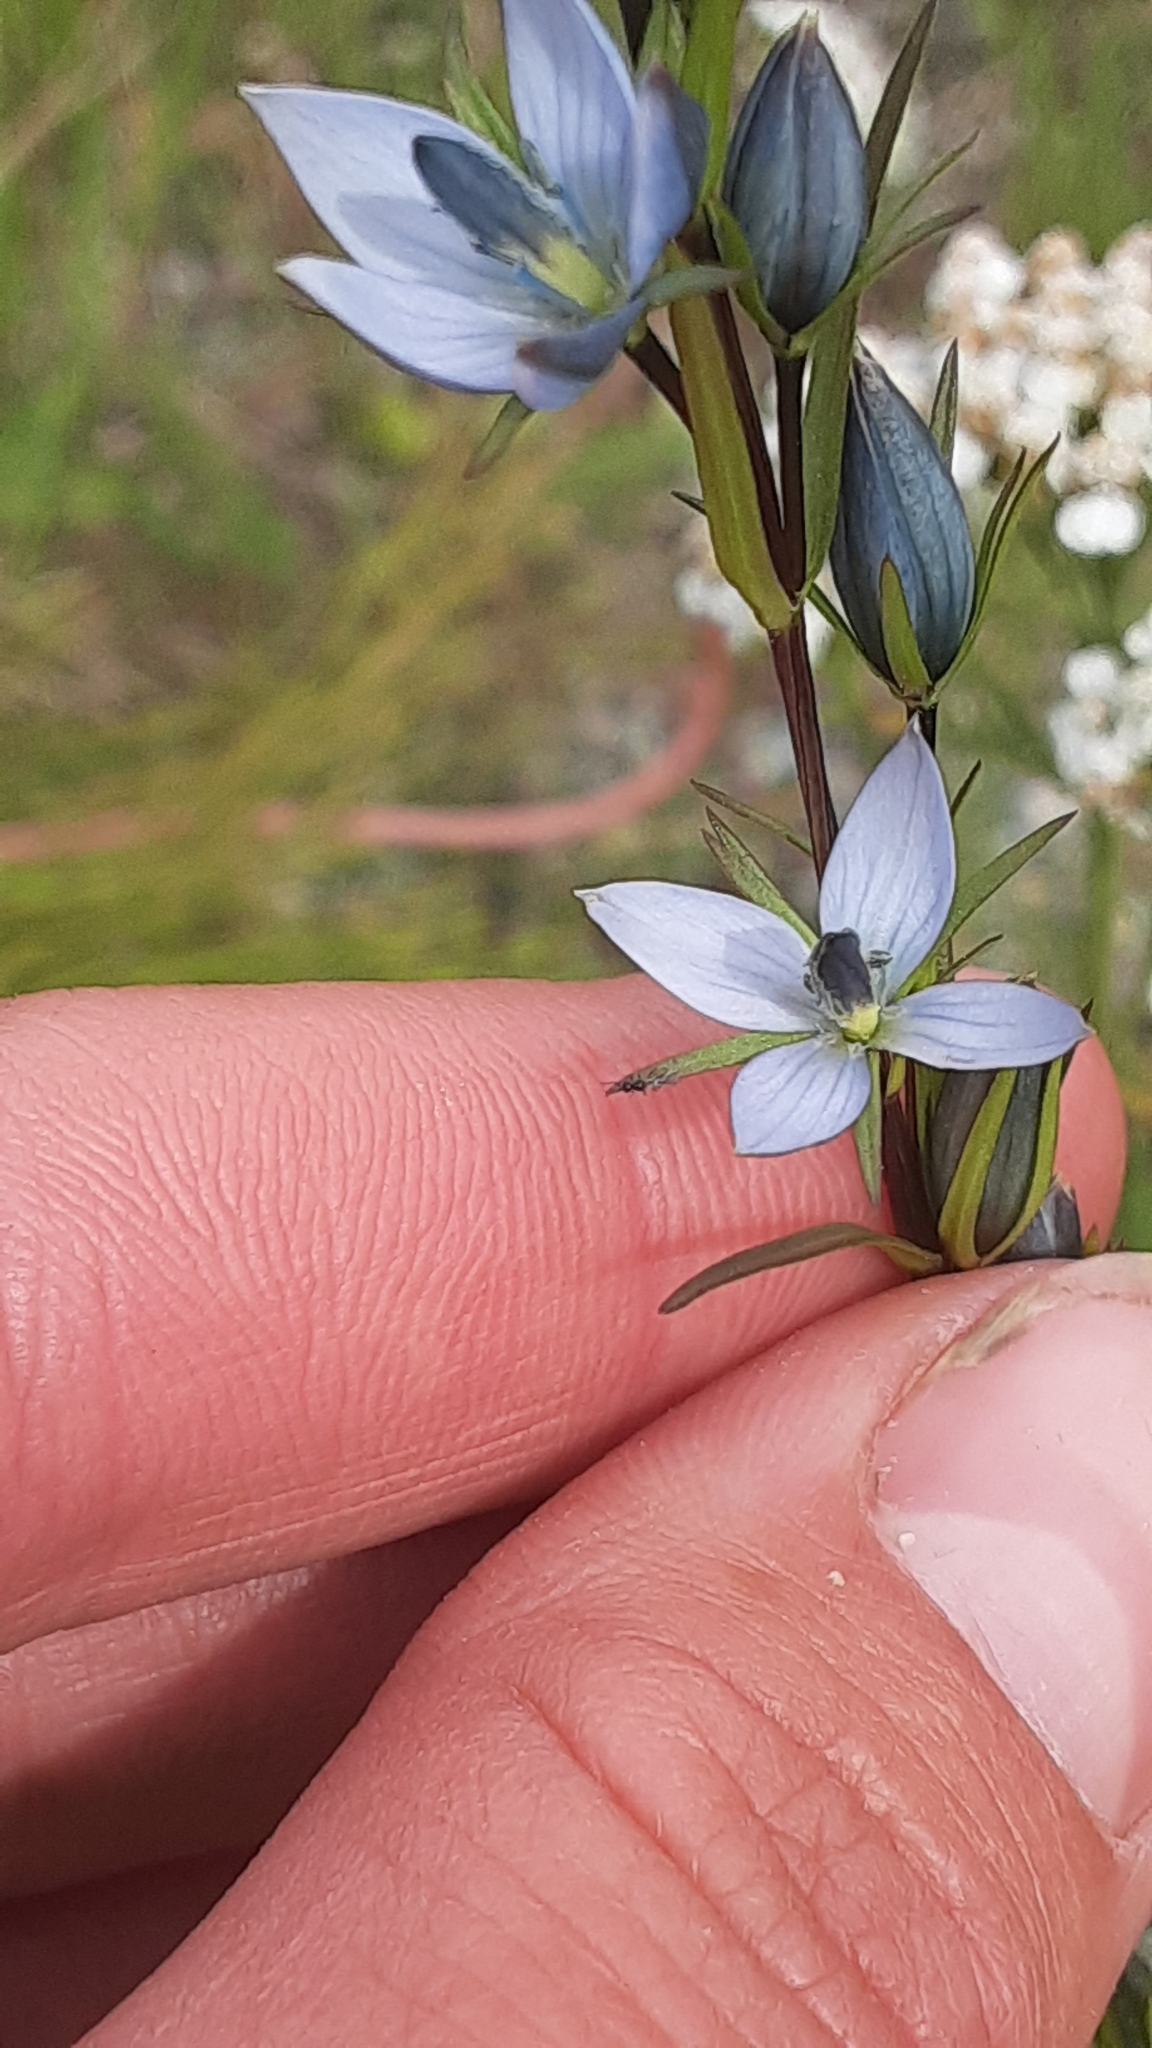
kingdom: Plantae
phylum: Tracheophyta
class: Magnoliopsida
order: Gentianales
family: Gentianaceae
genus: Lomatogonium
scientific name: Lomatogonium rotatum
